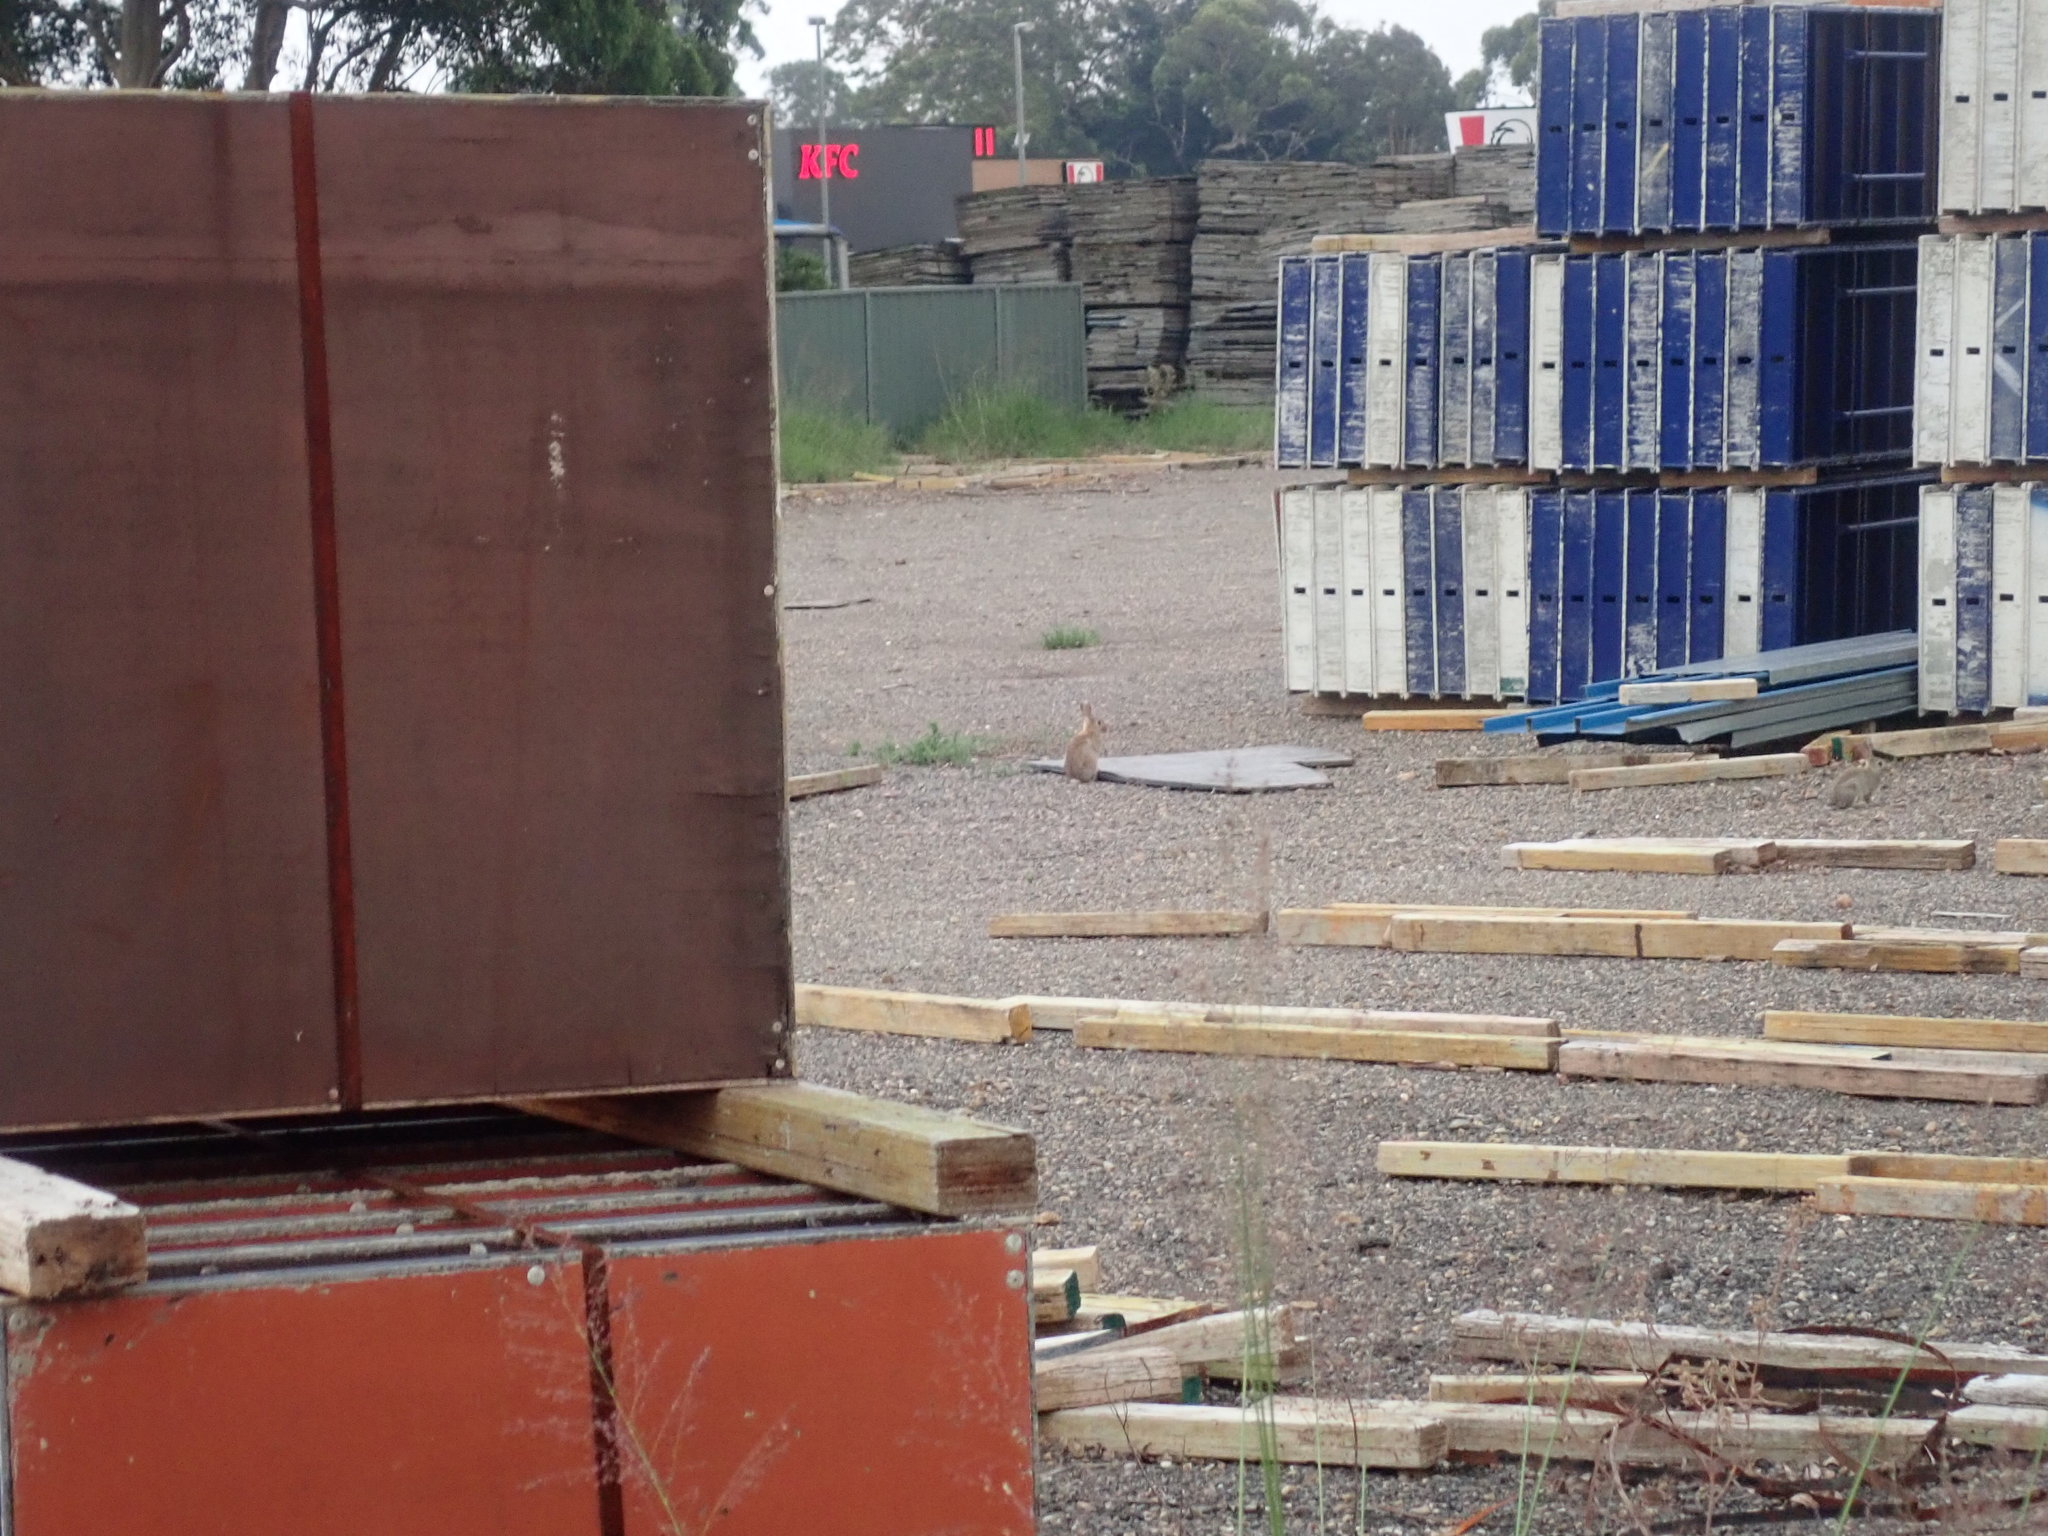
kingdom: Animalia
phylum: Chordata
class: Mammalia
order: Lagomorpha
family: Leporidae
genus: Oryctolagus
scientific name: Oryctolagus cuniculus
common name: European rabbit
